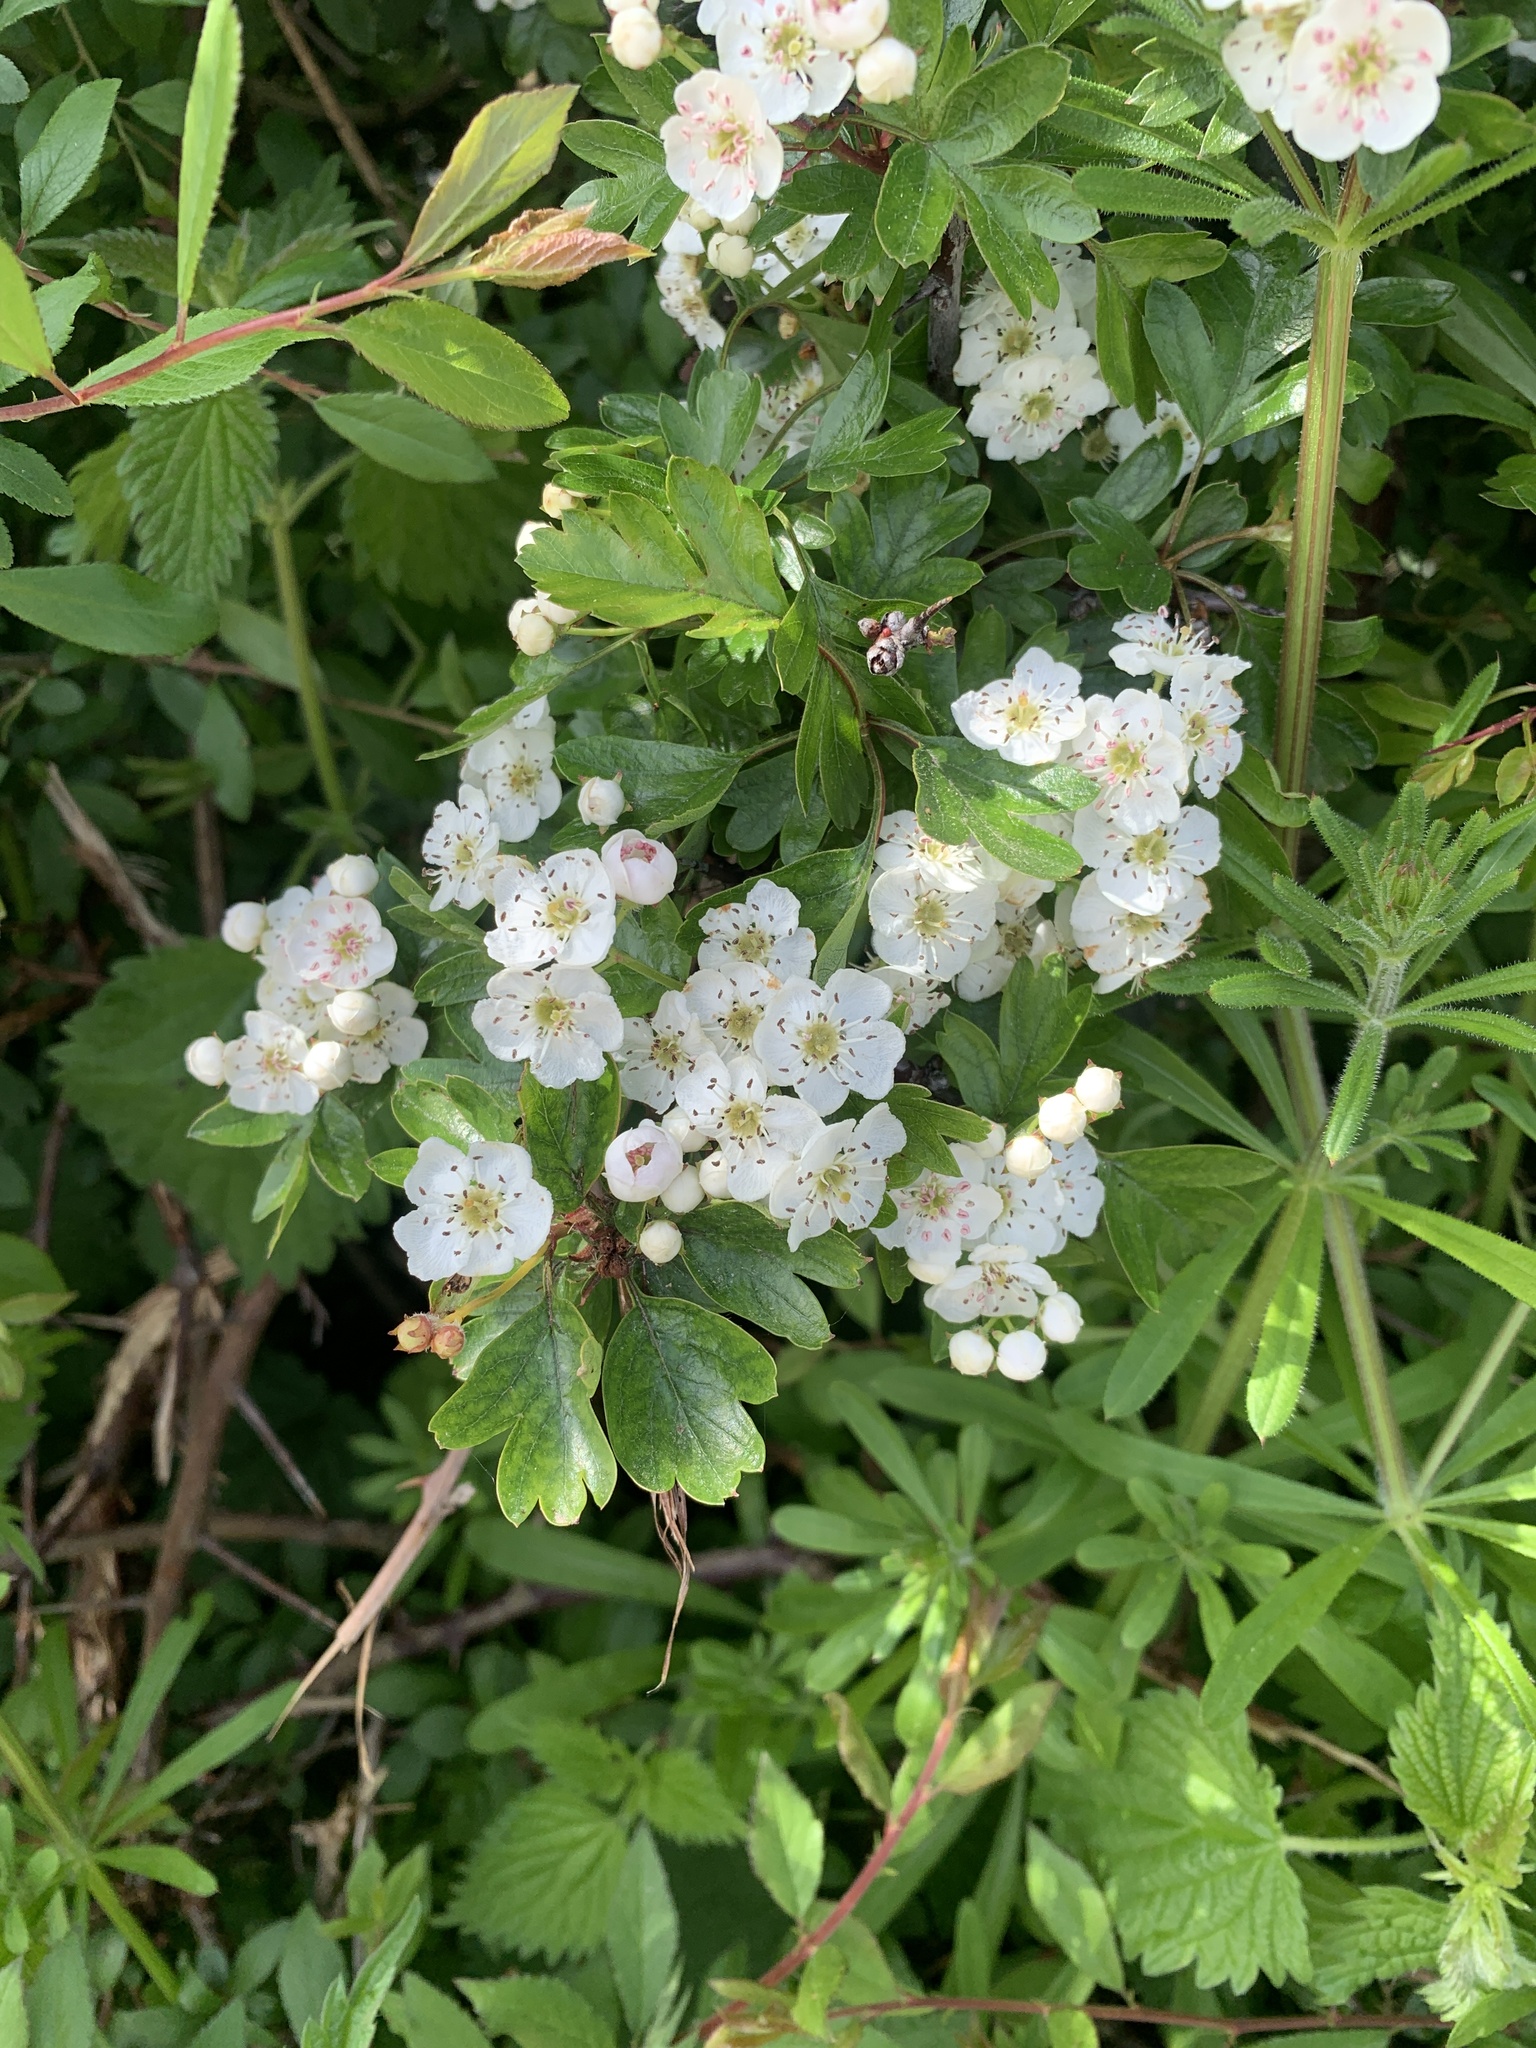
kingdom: Plantae
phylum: Tracheophyta
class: Magnoliopsida
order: Rosales
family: Rosaceae
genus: Crataegus
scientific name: Crataegus monogyna
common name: Hawthorn
